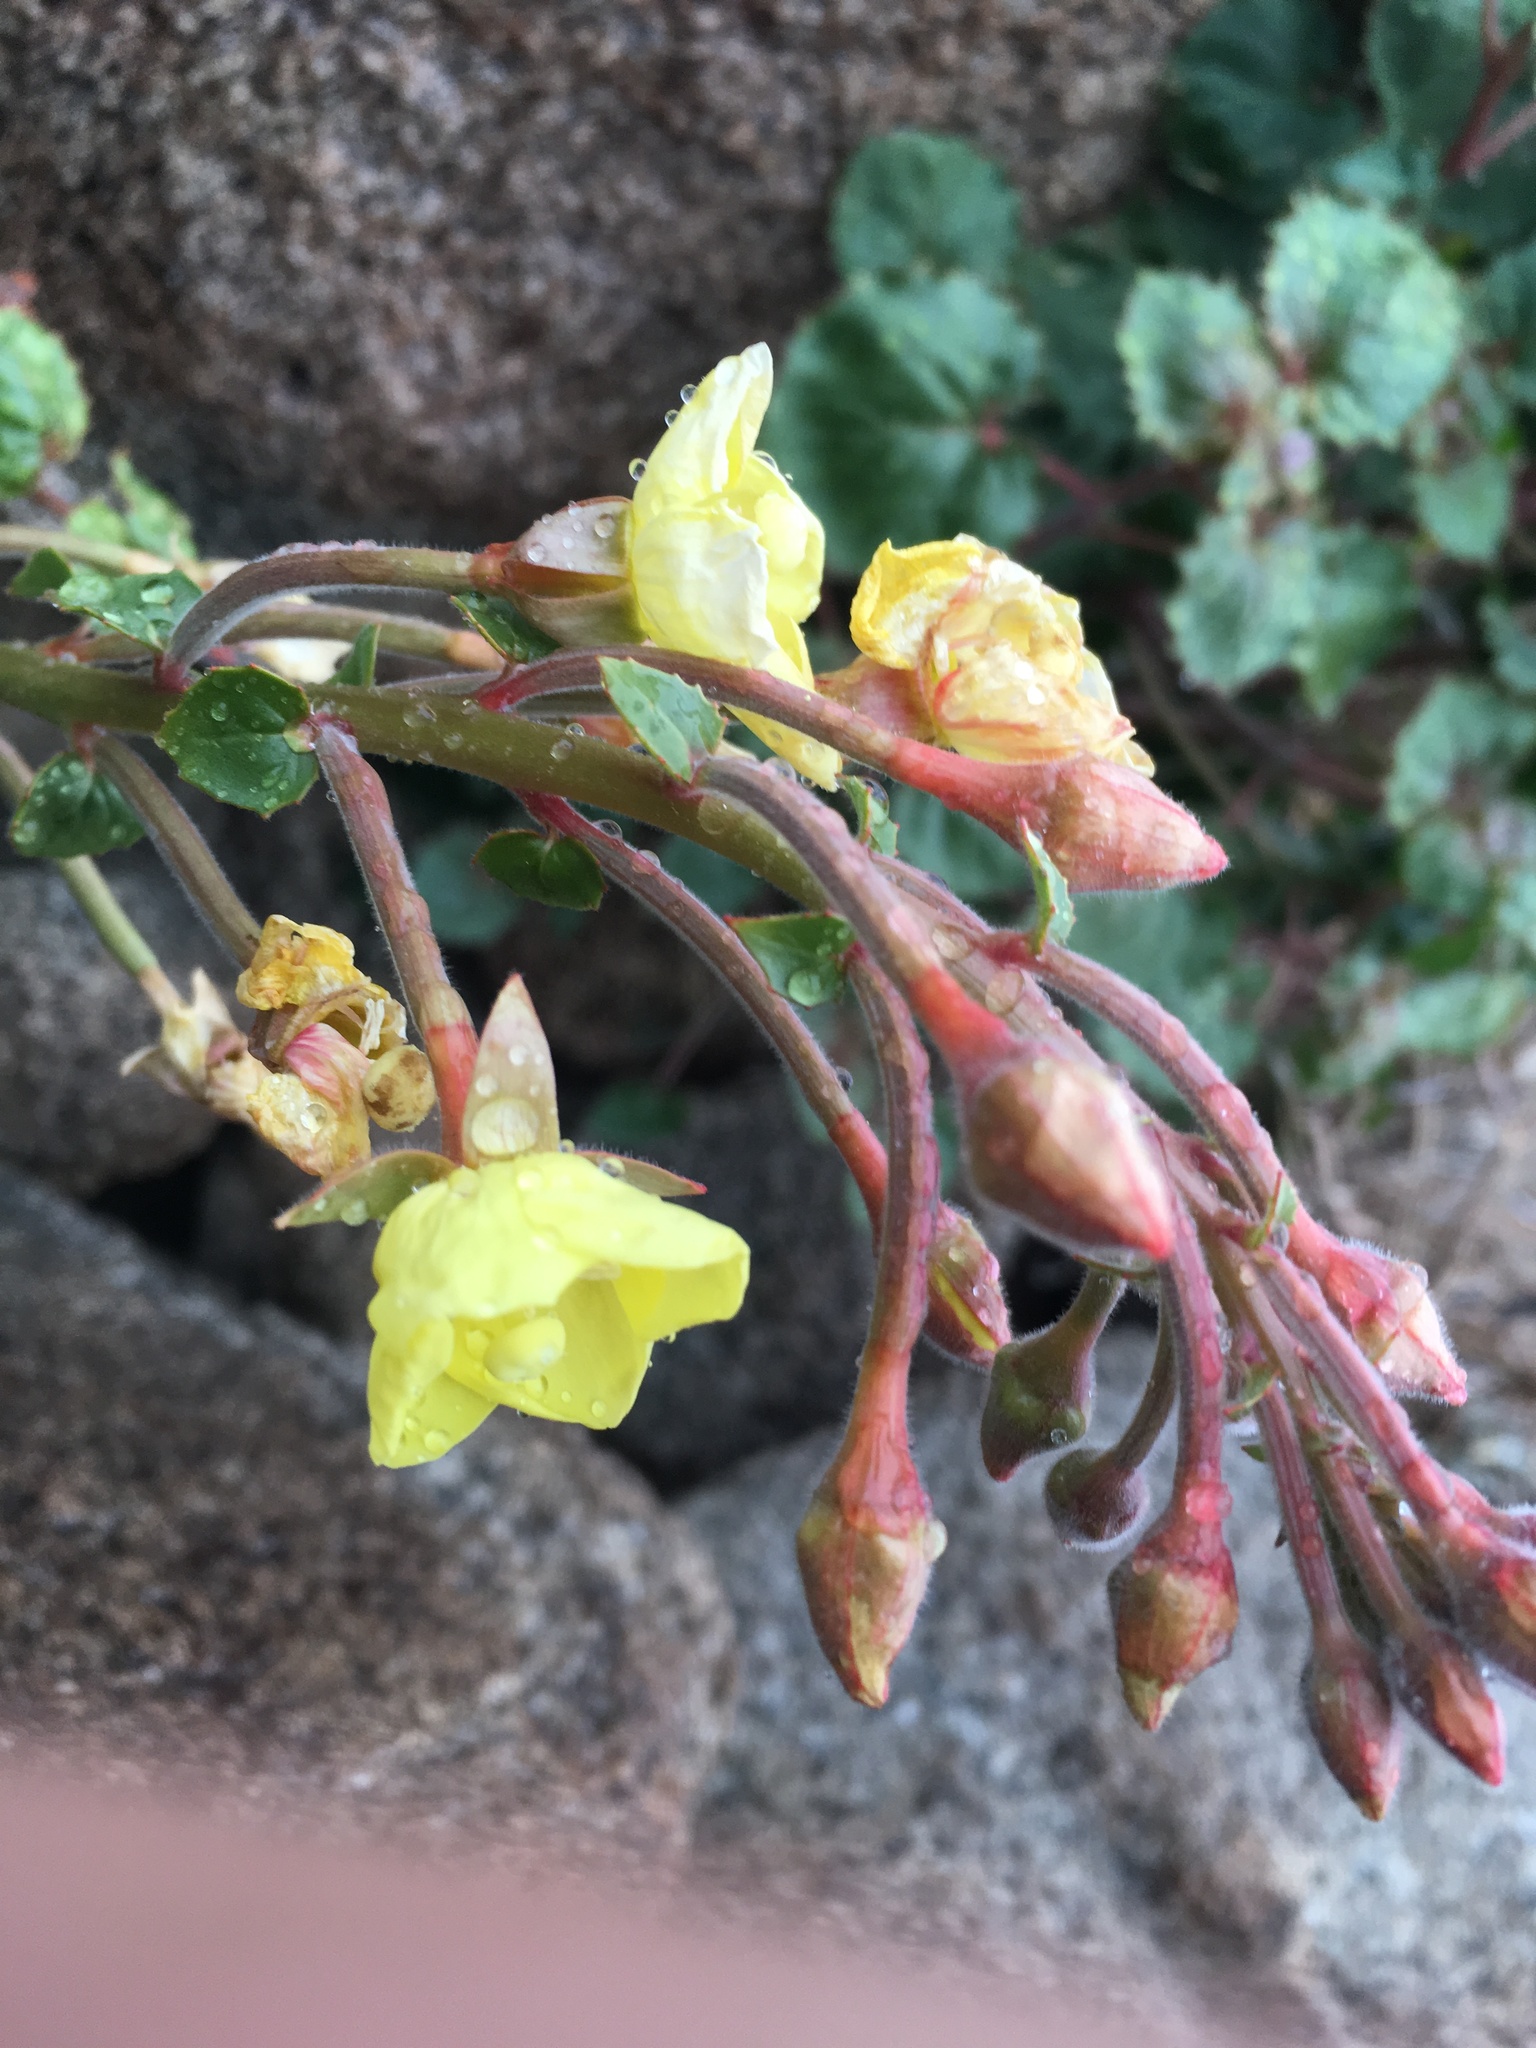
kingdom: Plantae
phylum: Tracheophyta
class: Magnoliopsida
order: Myrtales
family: Onagraceae
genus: Chylismia
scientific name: Chylismia cardiophylla
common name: Heartleaf suncup
